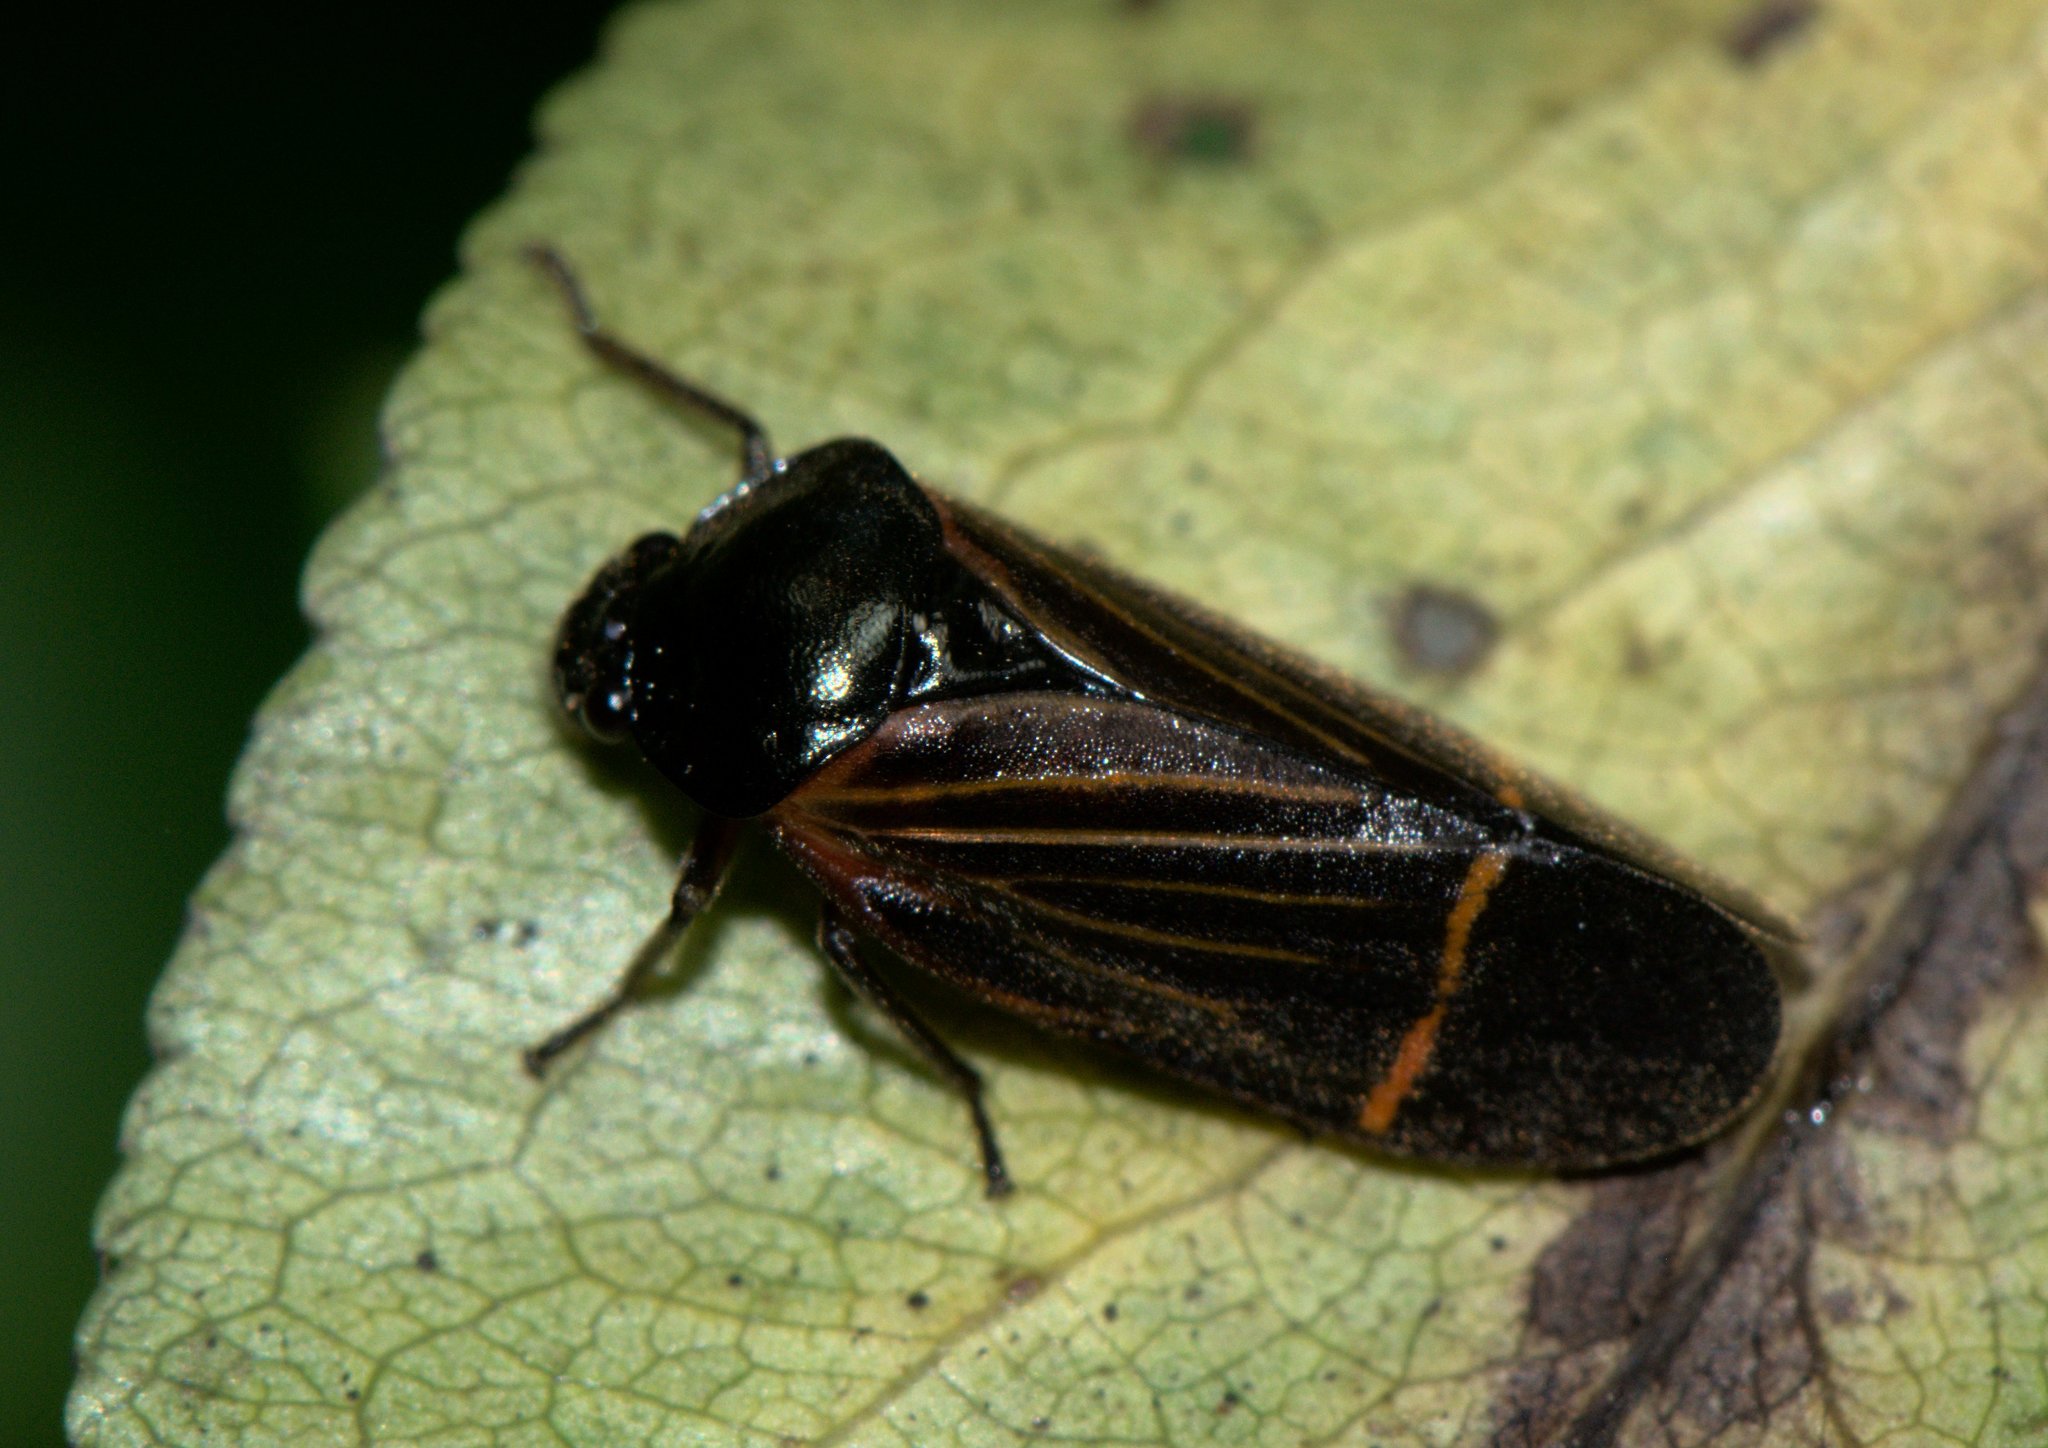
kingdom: Animalia
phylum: Arthropoda
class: Insecta
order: Hemiptera
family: Cercopidae
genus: Cosmoscarta
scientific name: Cosmoscarta elegantula
